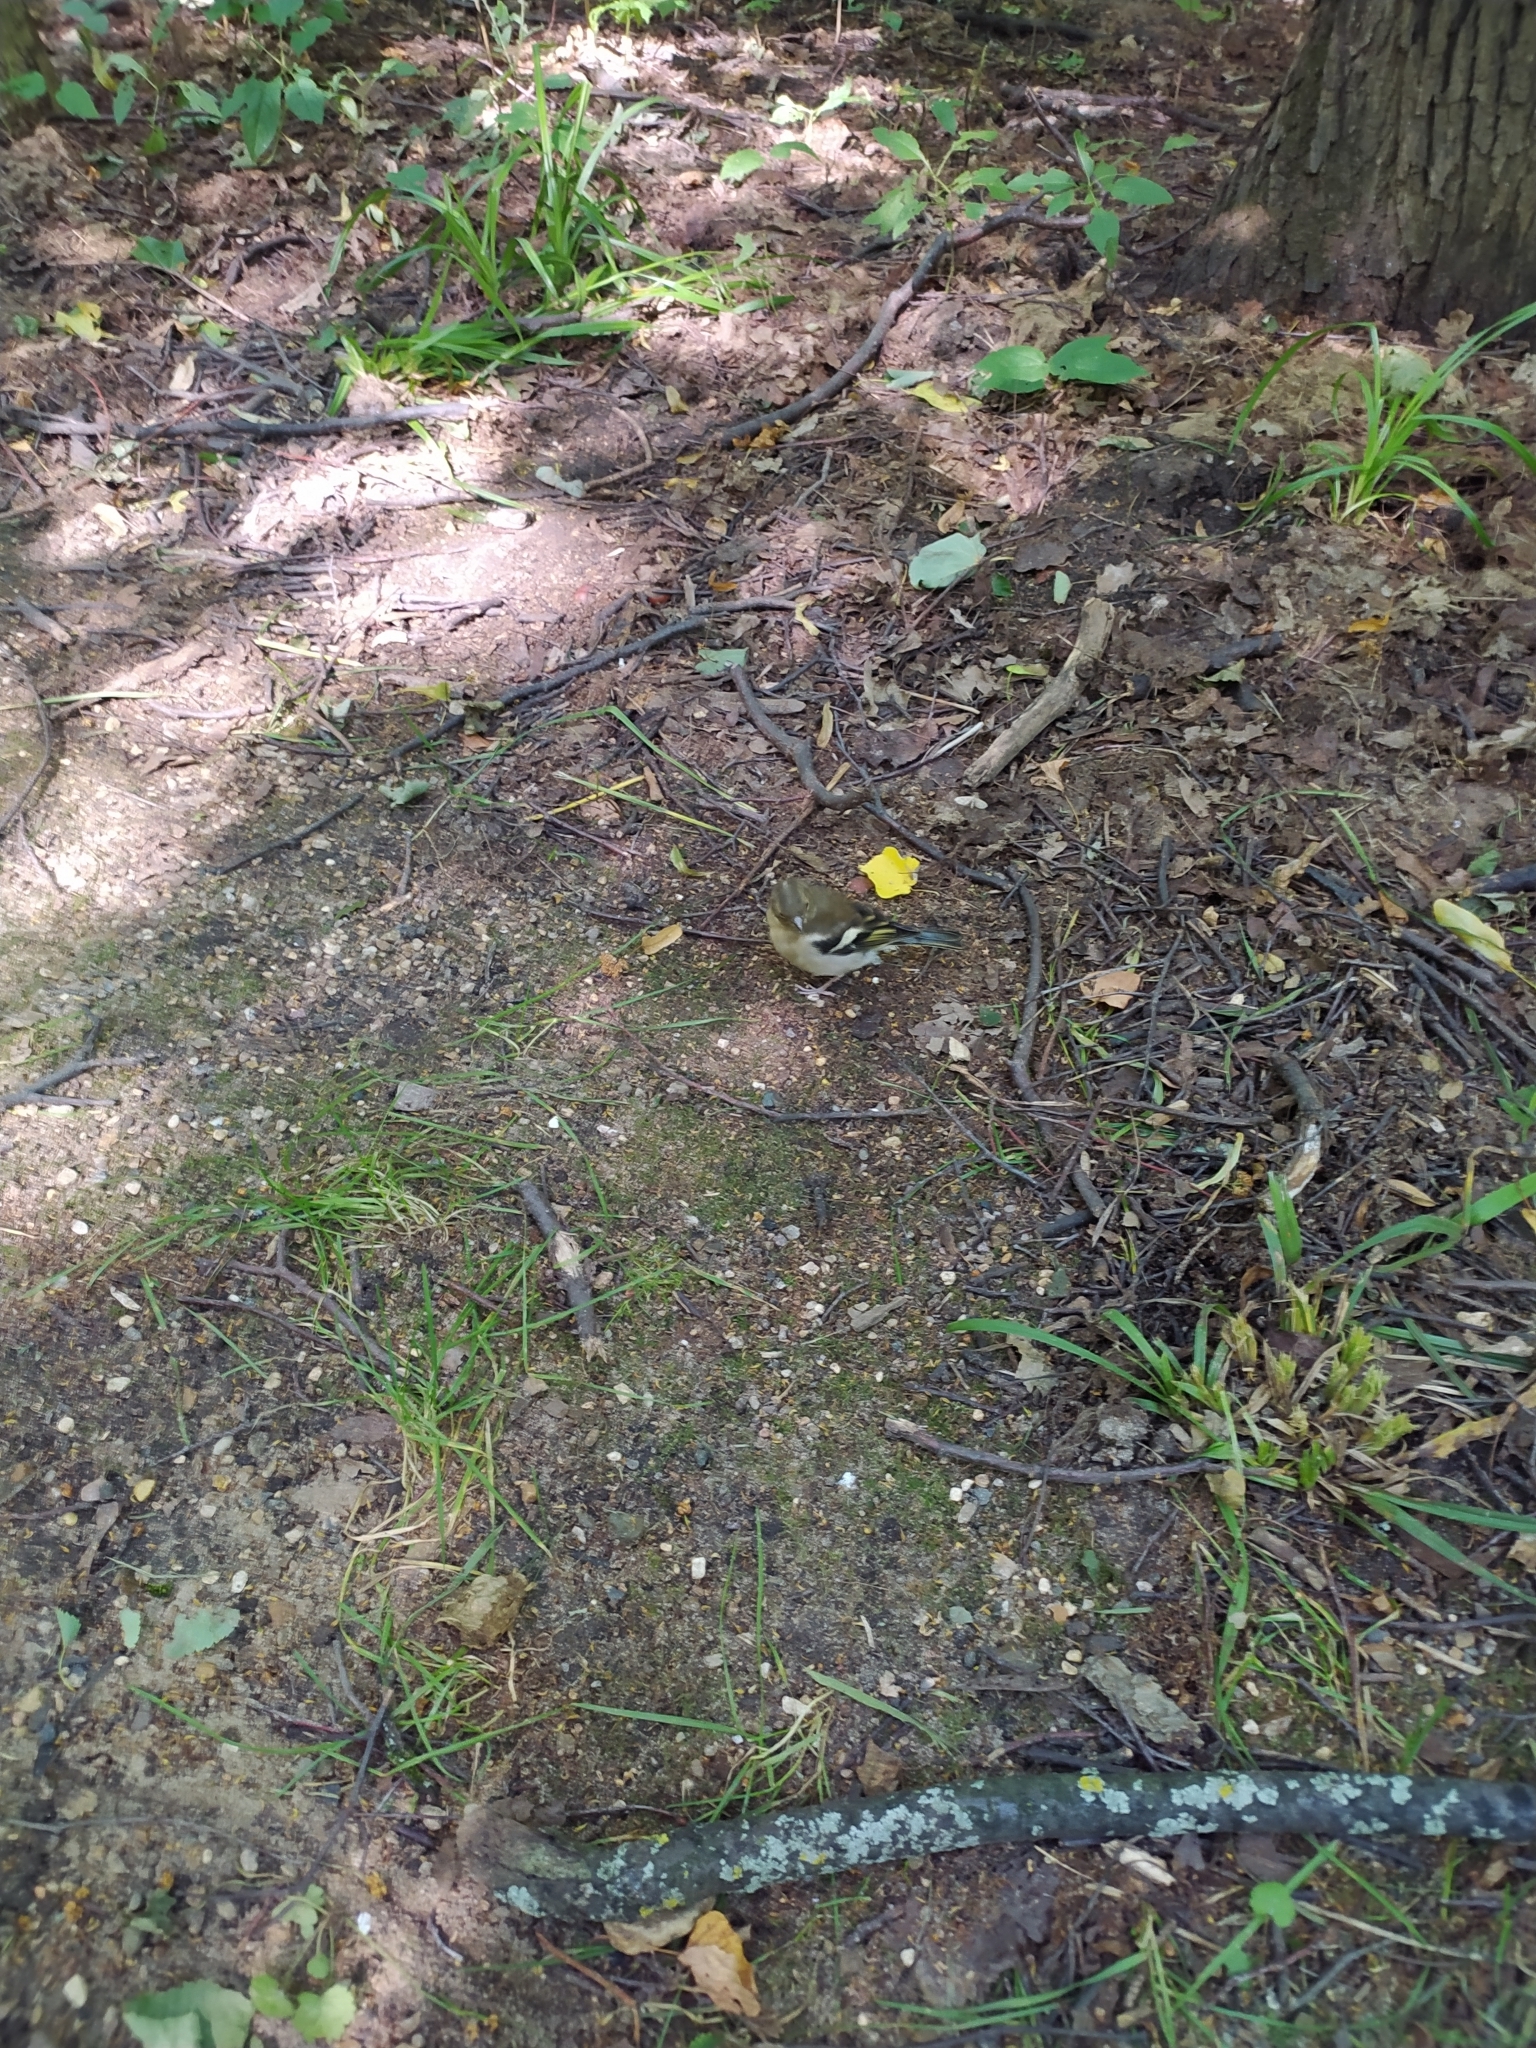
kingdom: Animalia
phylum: Chordata
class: Aves
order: Passeriformes
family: Fringillidae
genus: Fringilla
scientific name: Fringilla coelebs
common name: Common chaffinch
